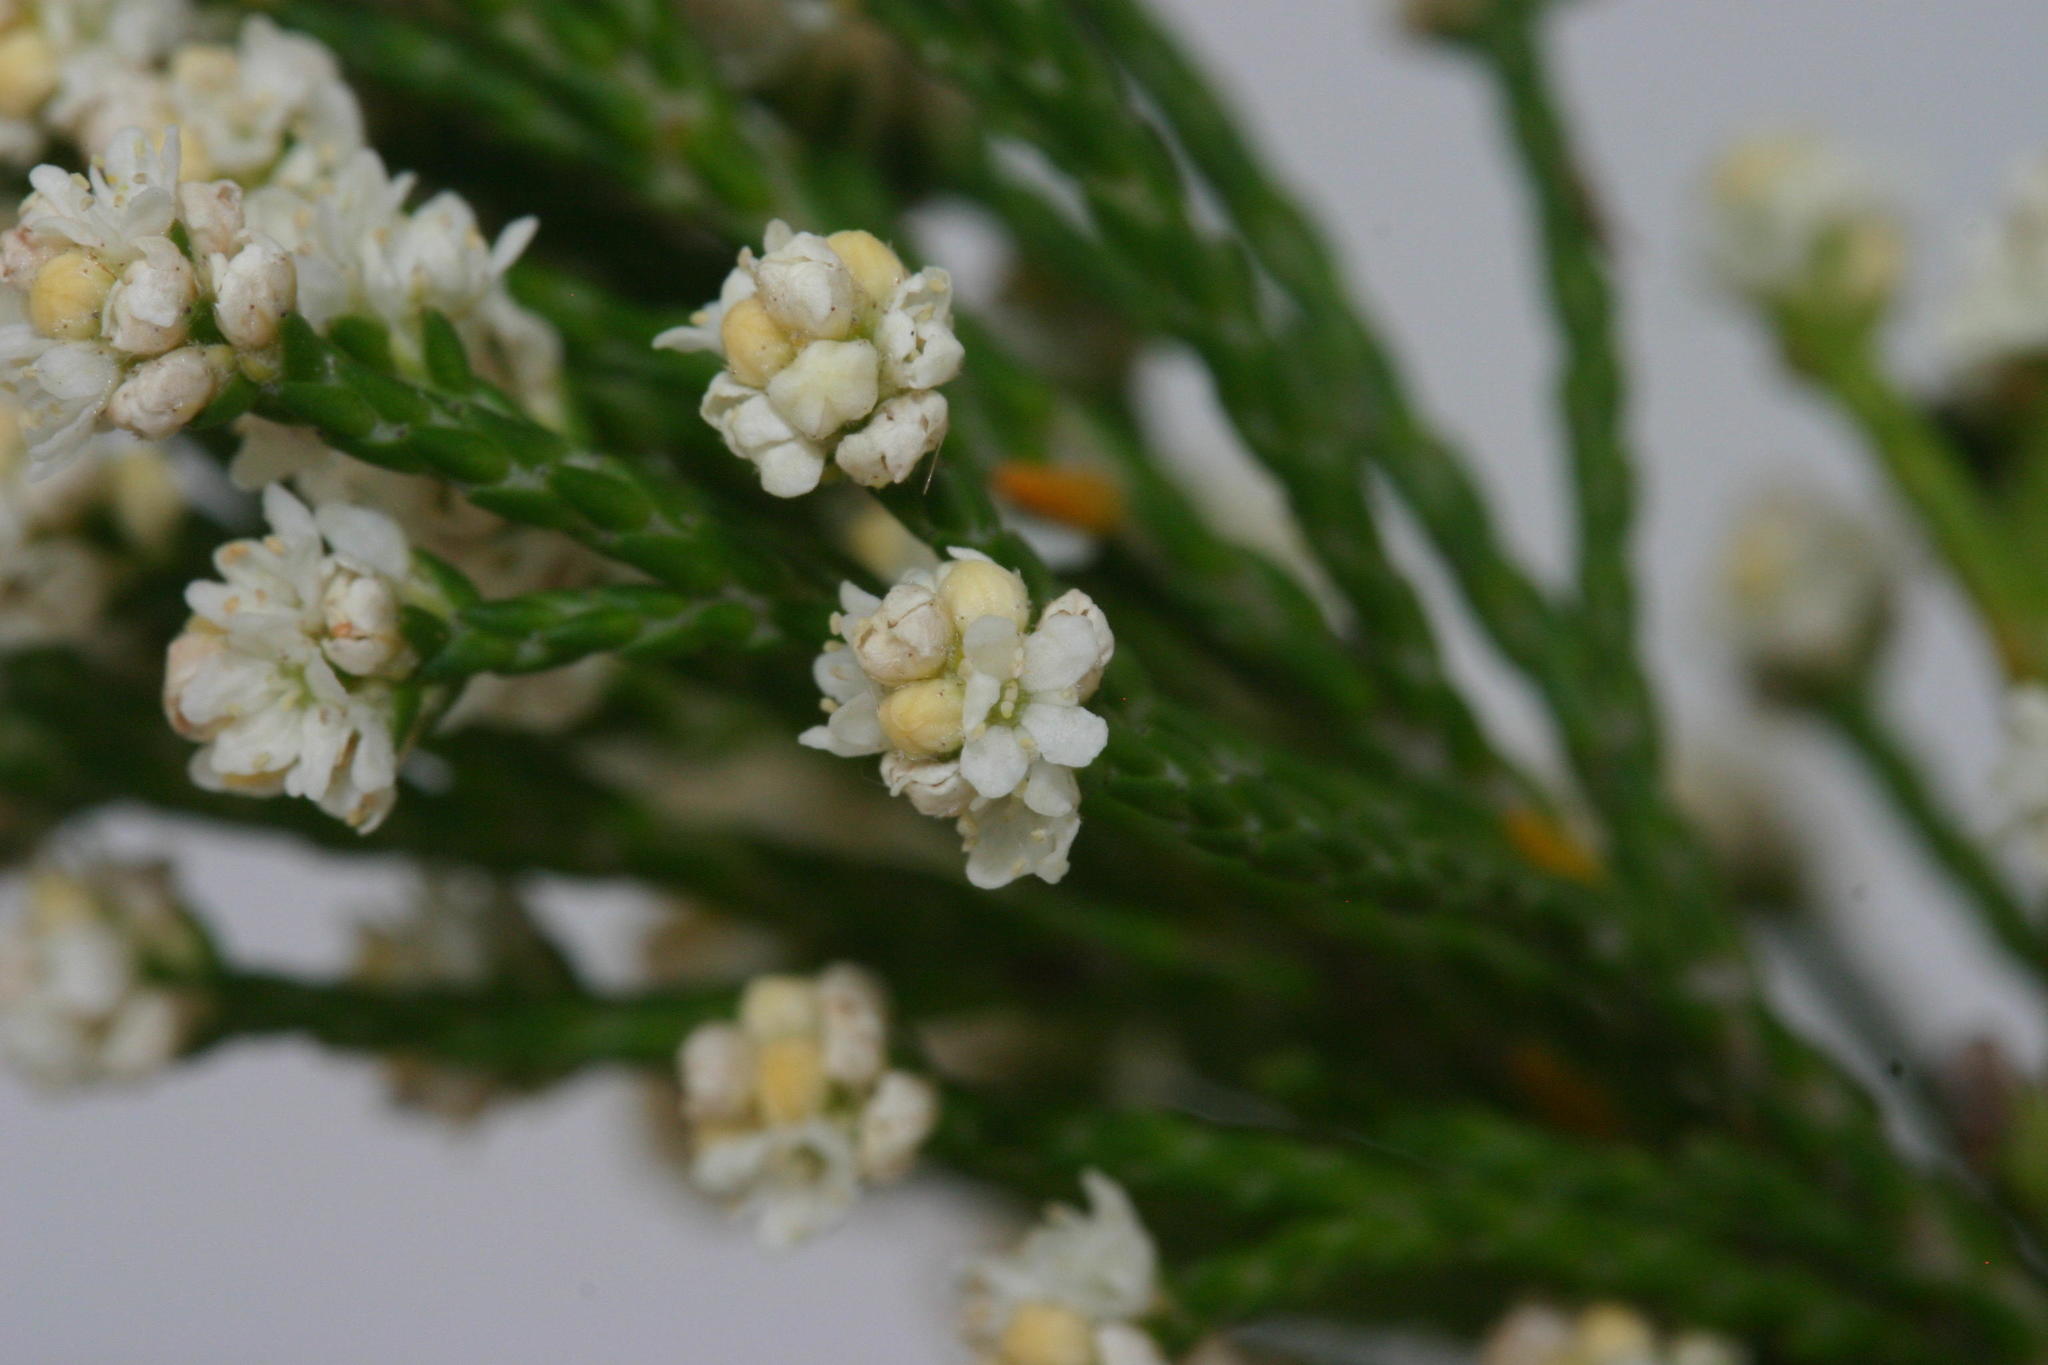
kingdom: Plantae
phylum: Tracheophyta
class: Magnoliopsida
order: Bruniales
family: Bruniaceae
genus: Brunia
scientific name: Brunia schlechteri
